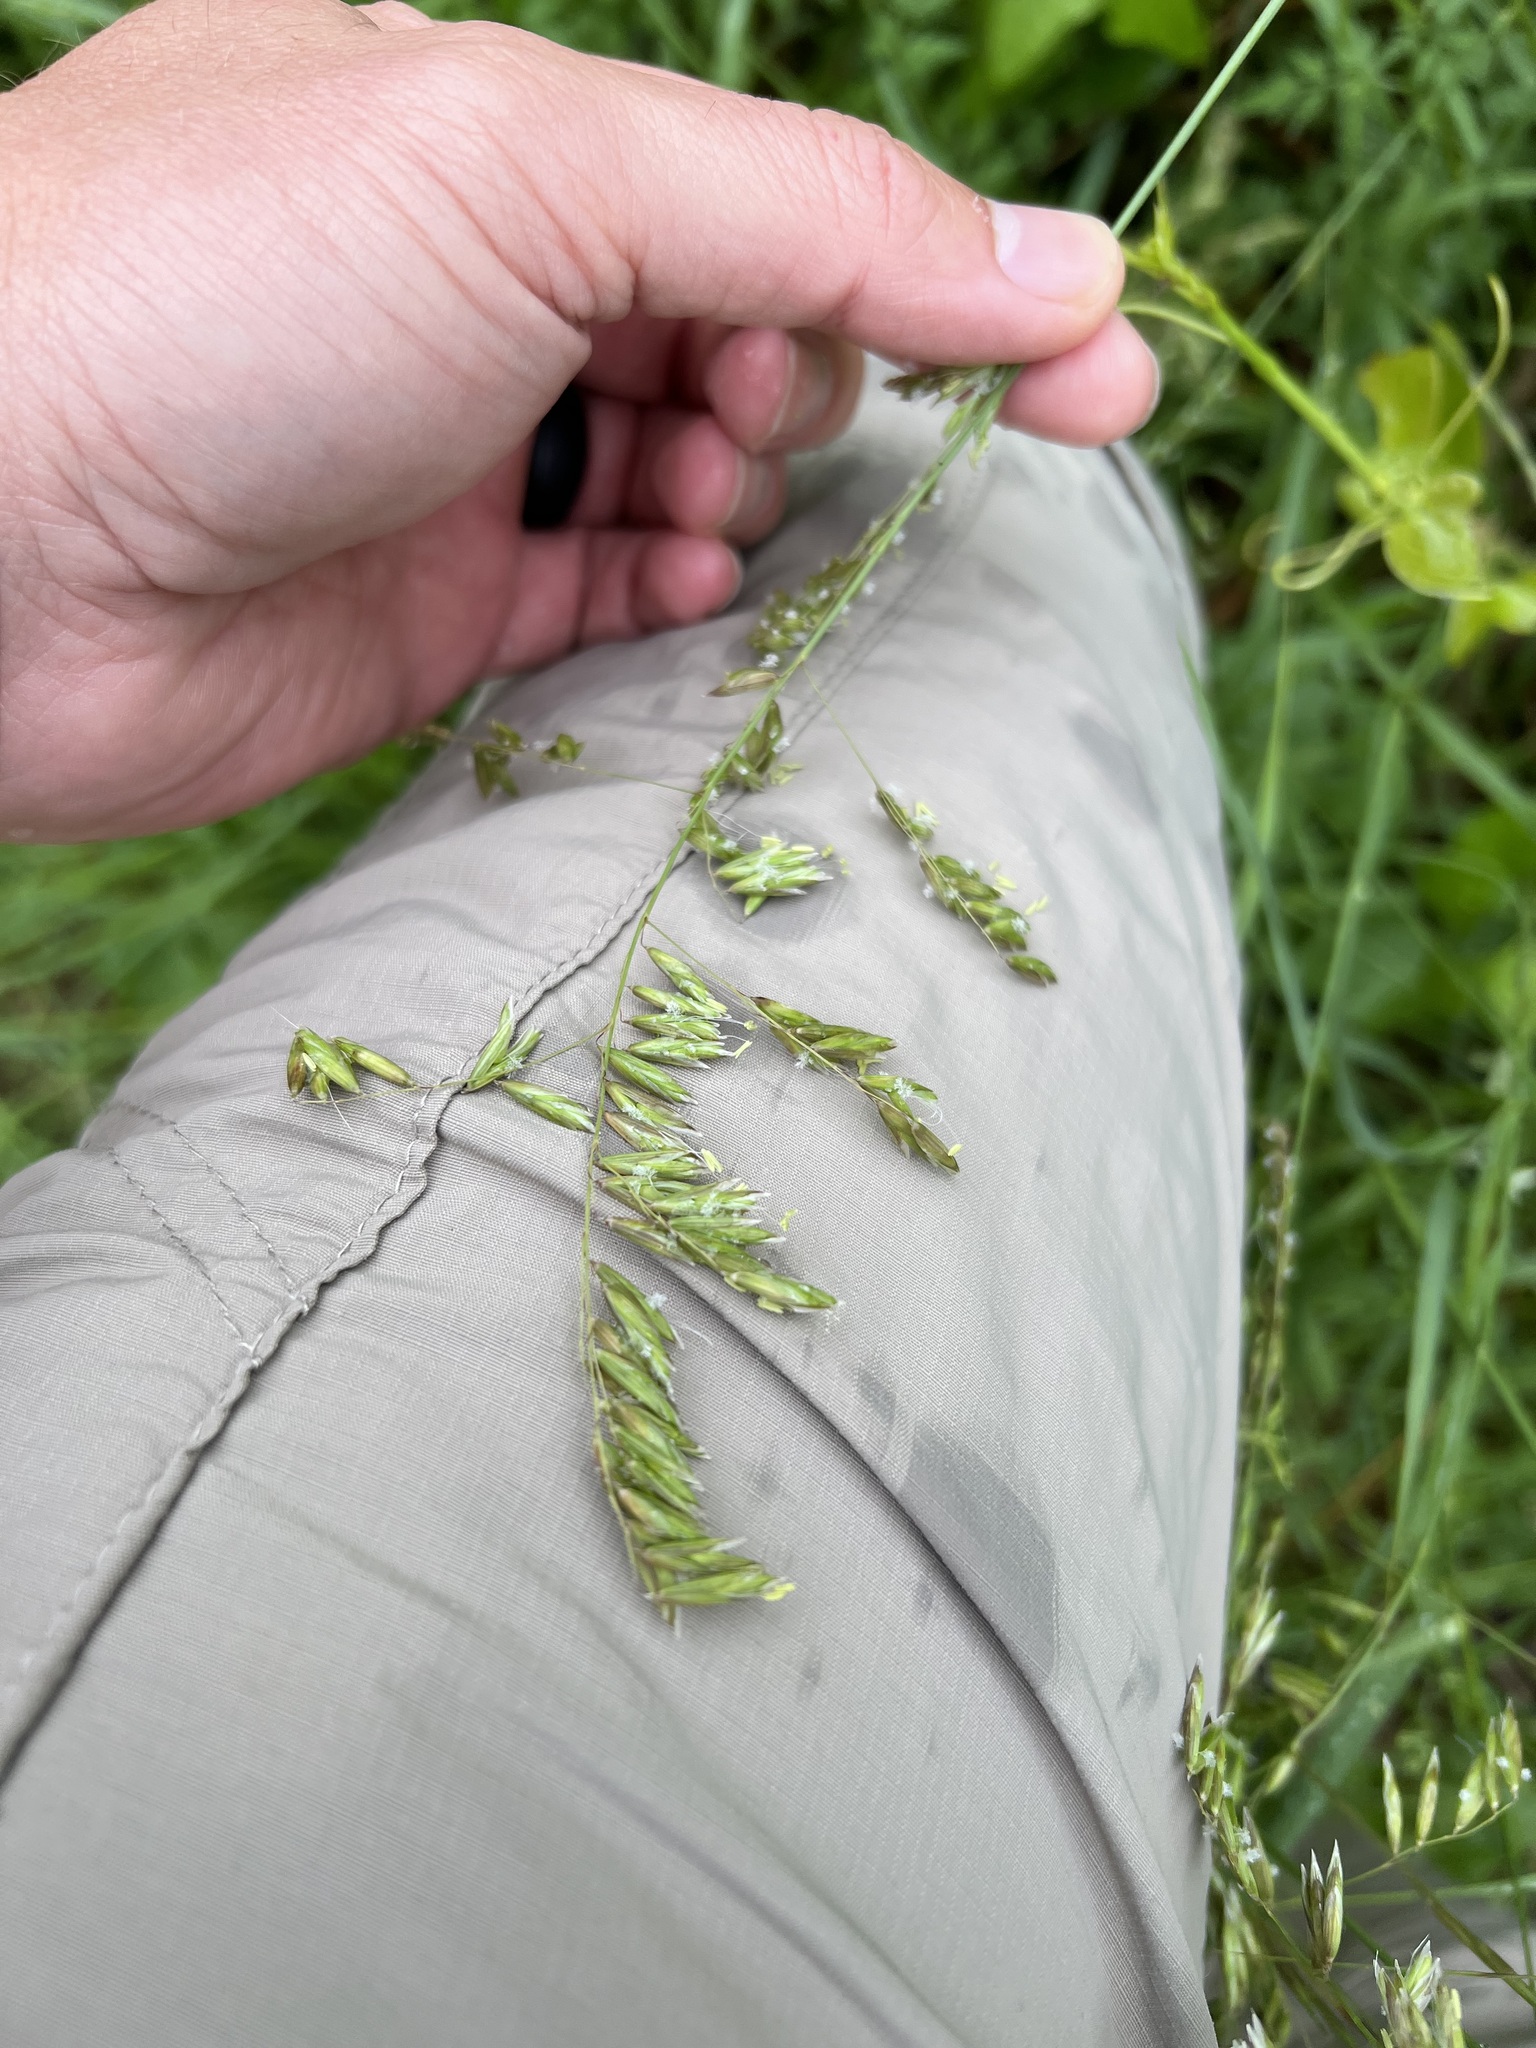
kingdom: Plantae
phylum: Tracheophyta
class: Liliopsida
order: Poales
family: Poaceae
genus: Melica
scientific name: Melica nitens
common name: Three-flower melic
